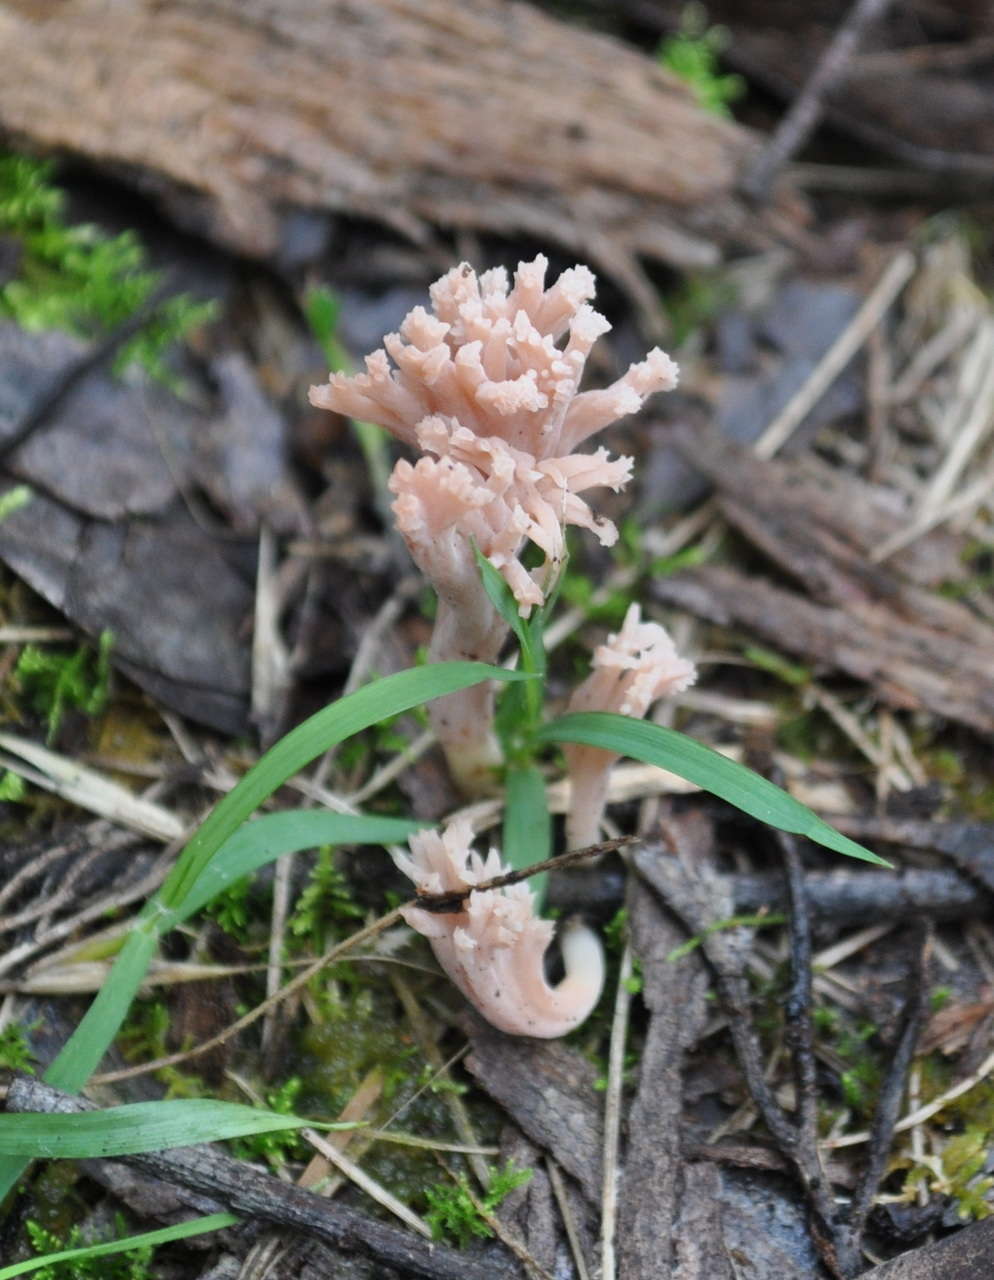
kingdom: Fungi
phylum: Basidiomycota
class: Agaricomycetes
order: Gomphales
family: Gomphaceae
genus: Ramaria
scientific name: Ramaria filicicola
